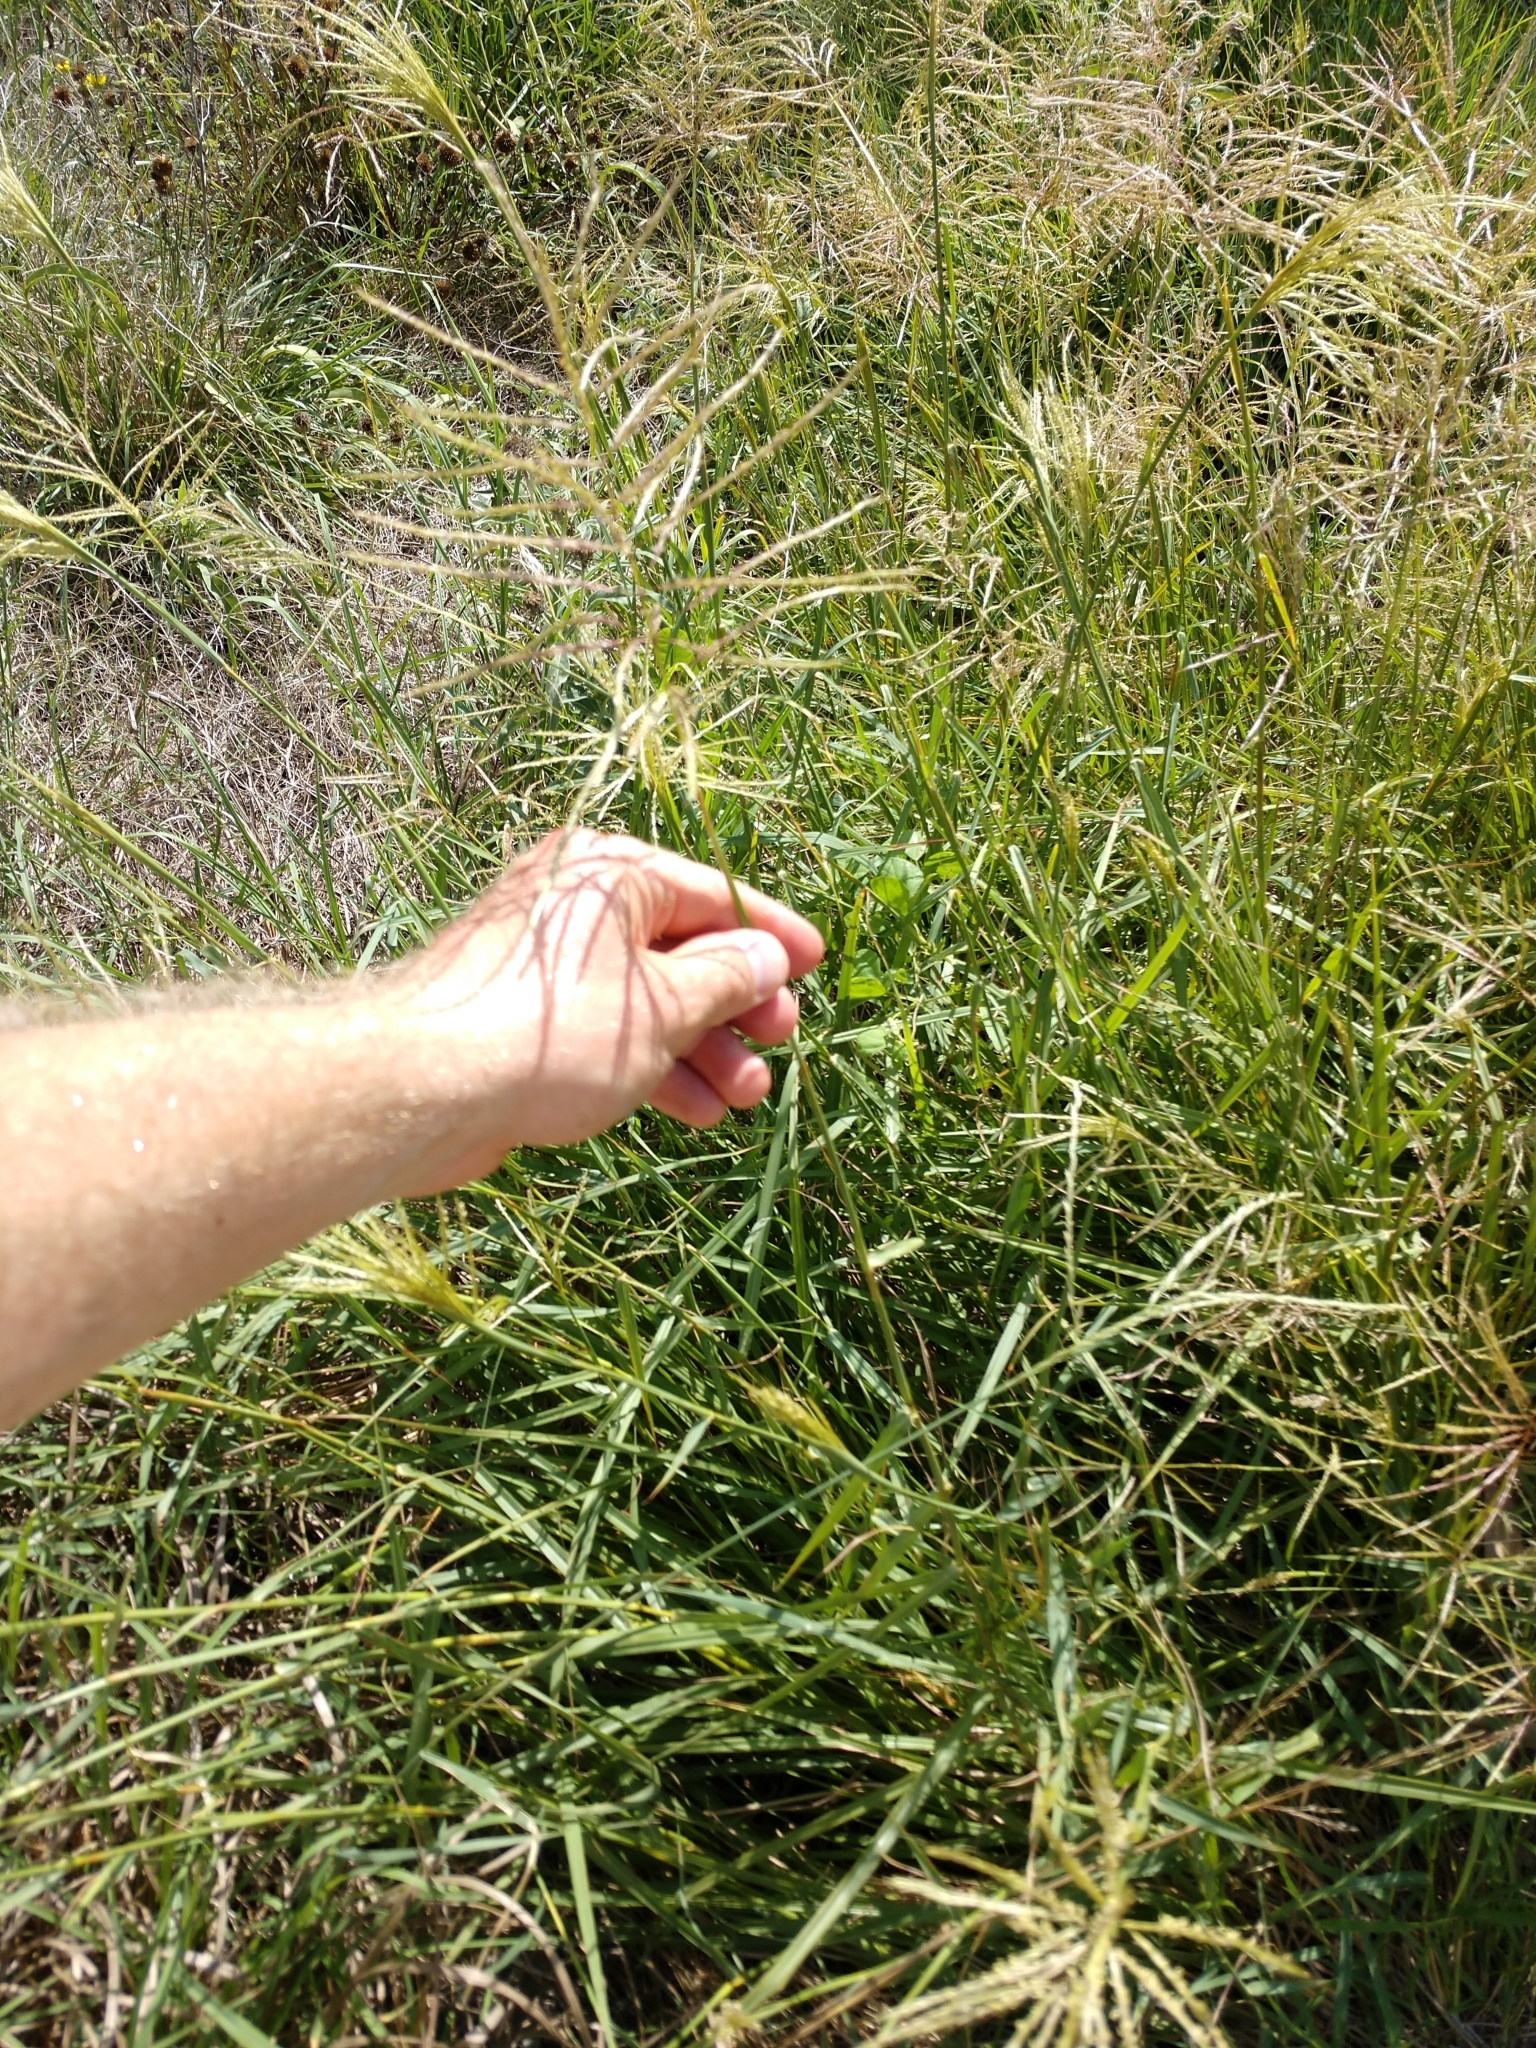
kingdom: Plantae
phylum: Tracheophyta
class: Liliopsida
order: Poales
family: Poaceae
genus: Bothriochloa
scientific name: Bothriochloa bladhii
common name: Caucasian bluestem
